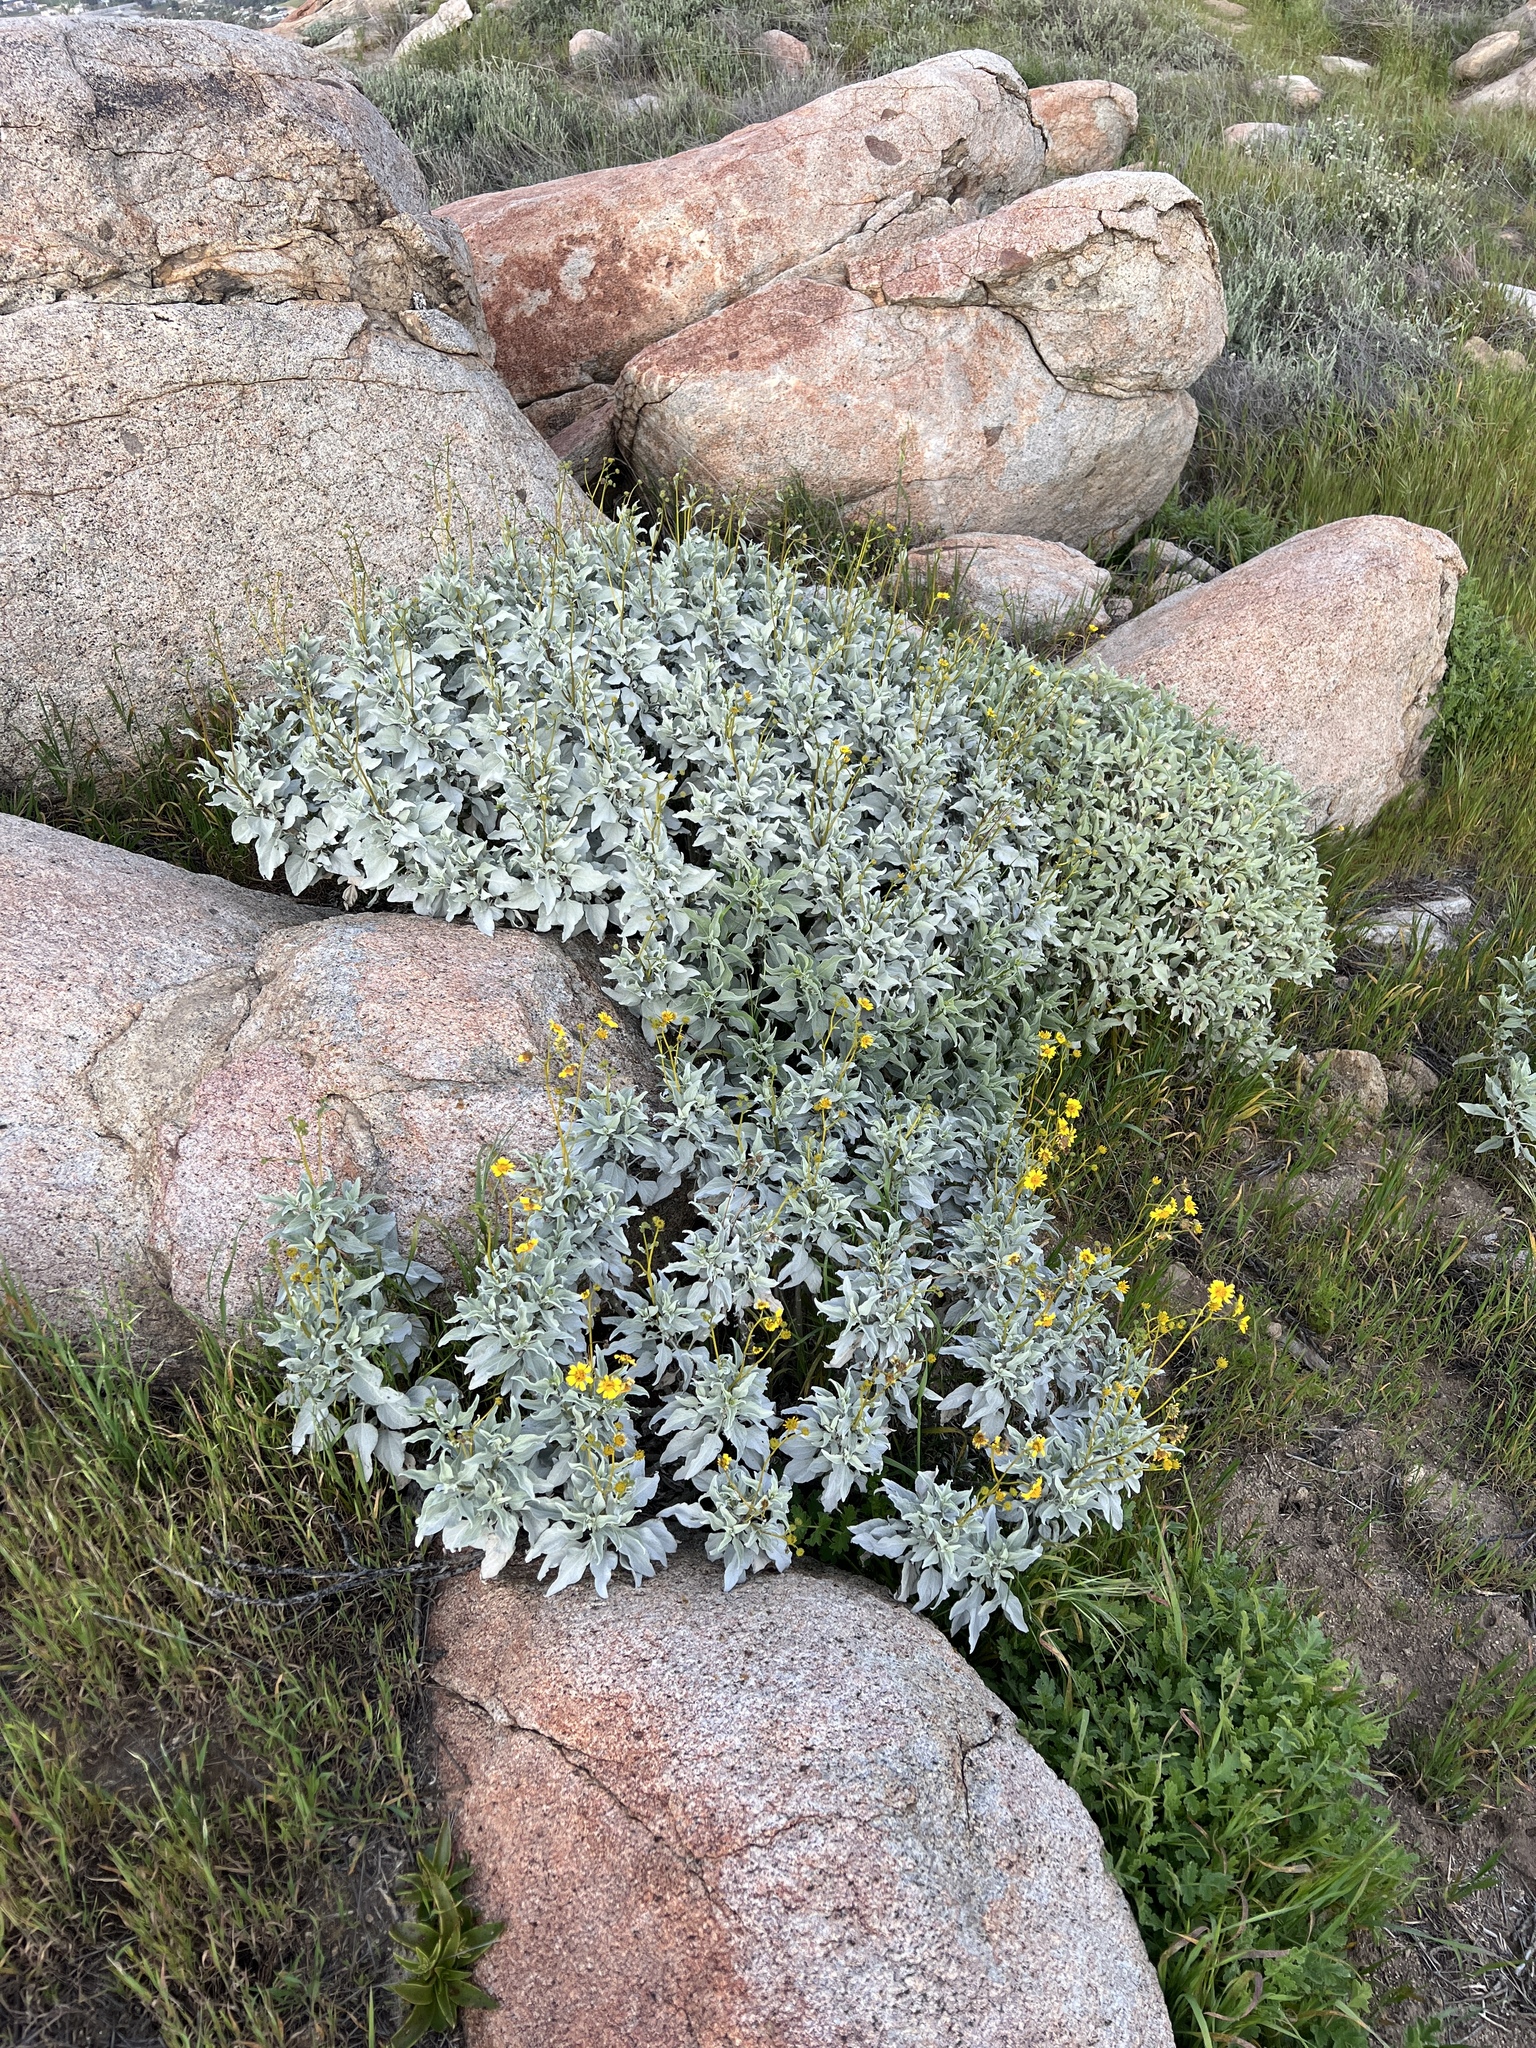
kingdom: Plantae
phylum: Tracheophyta
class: Magnoliopsida
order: Asterales
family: Asteraceae
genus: Encelia
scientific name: Encelia farinosa
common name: Brittlebush
